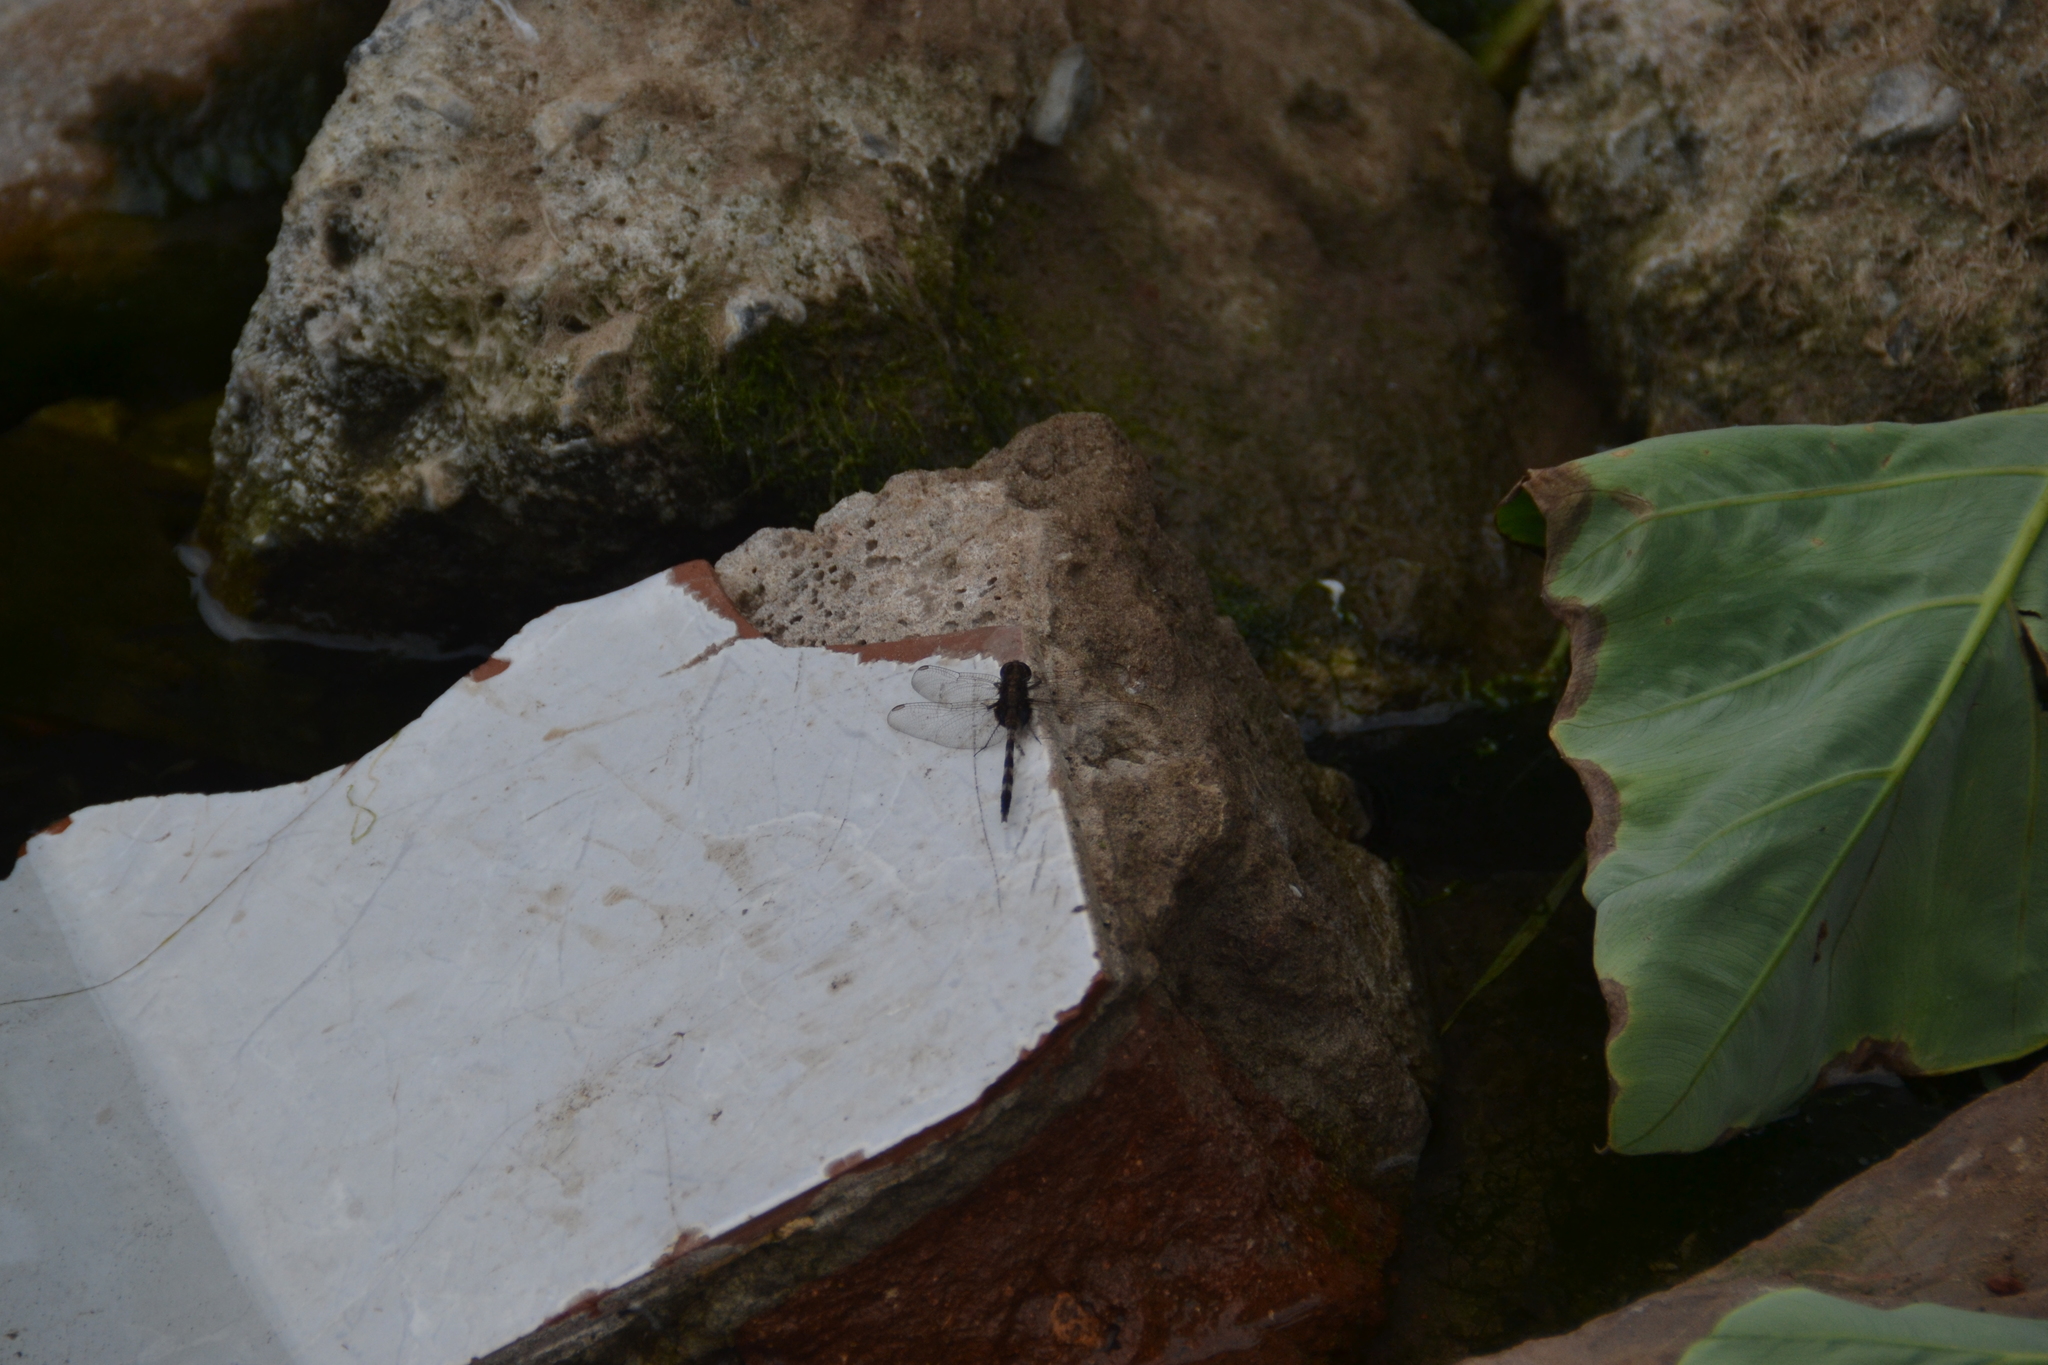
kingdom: Animalia
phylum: Arthropoda
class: Insecta
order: Odonata
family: Libellulidae
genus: Erythemis
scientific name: Erythemis plebeja
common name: Pin-tailed pondhawk
